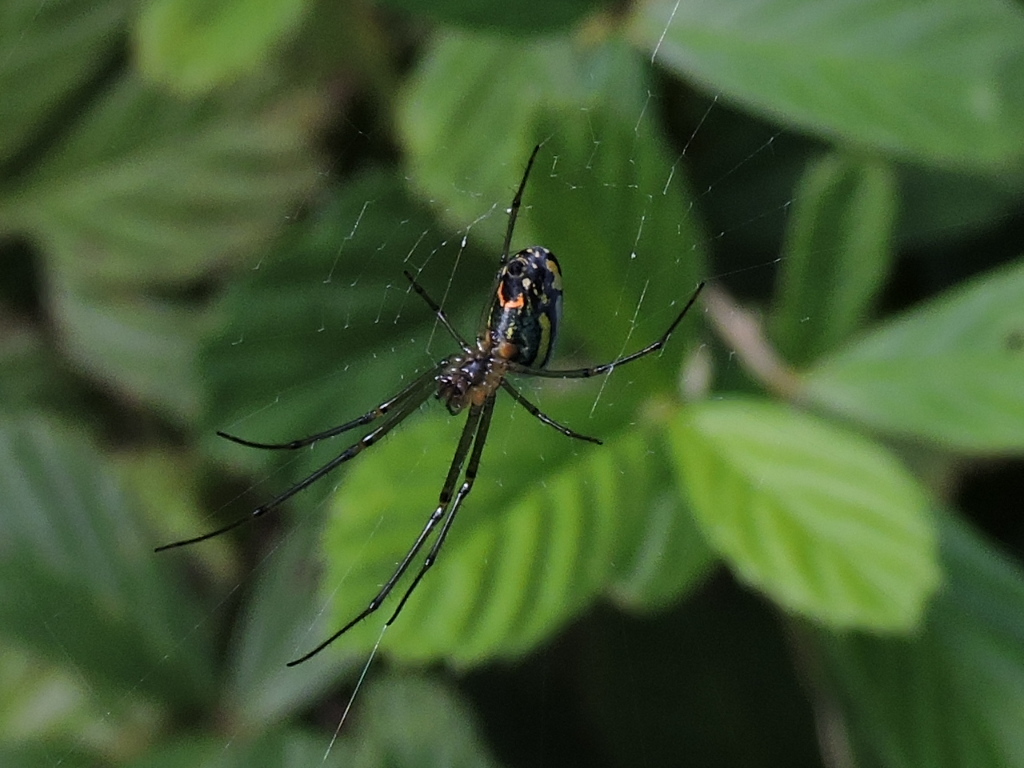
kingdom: Animalia
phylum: Arthropoda
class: Arachnida
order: Araneae
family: Tetragnathidae
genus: Leucauge
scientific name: Leucauge venusta
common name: Longjawed orb weavers
